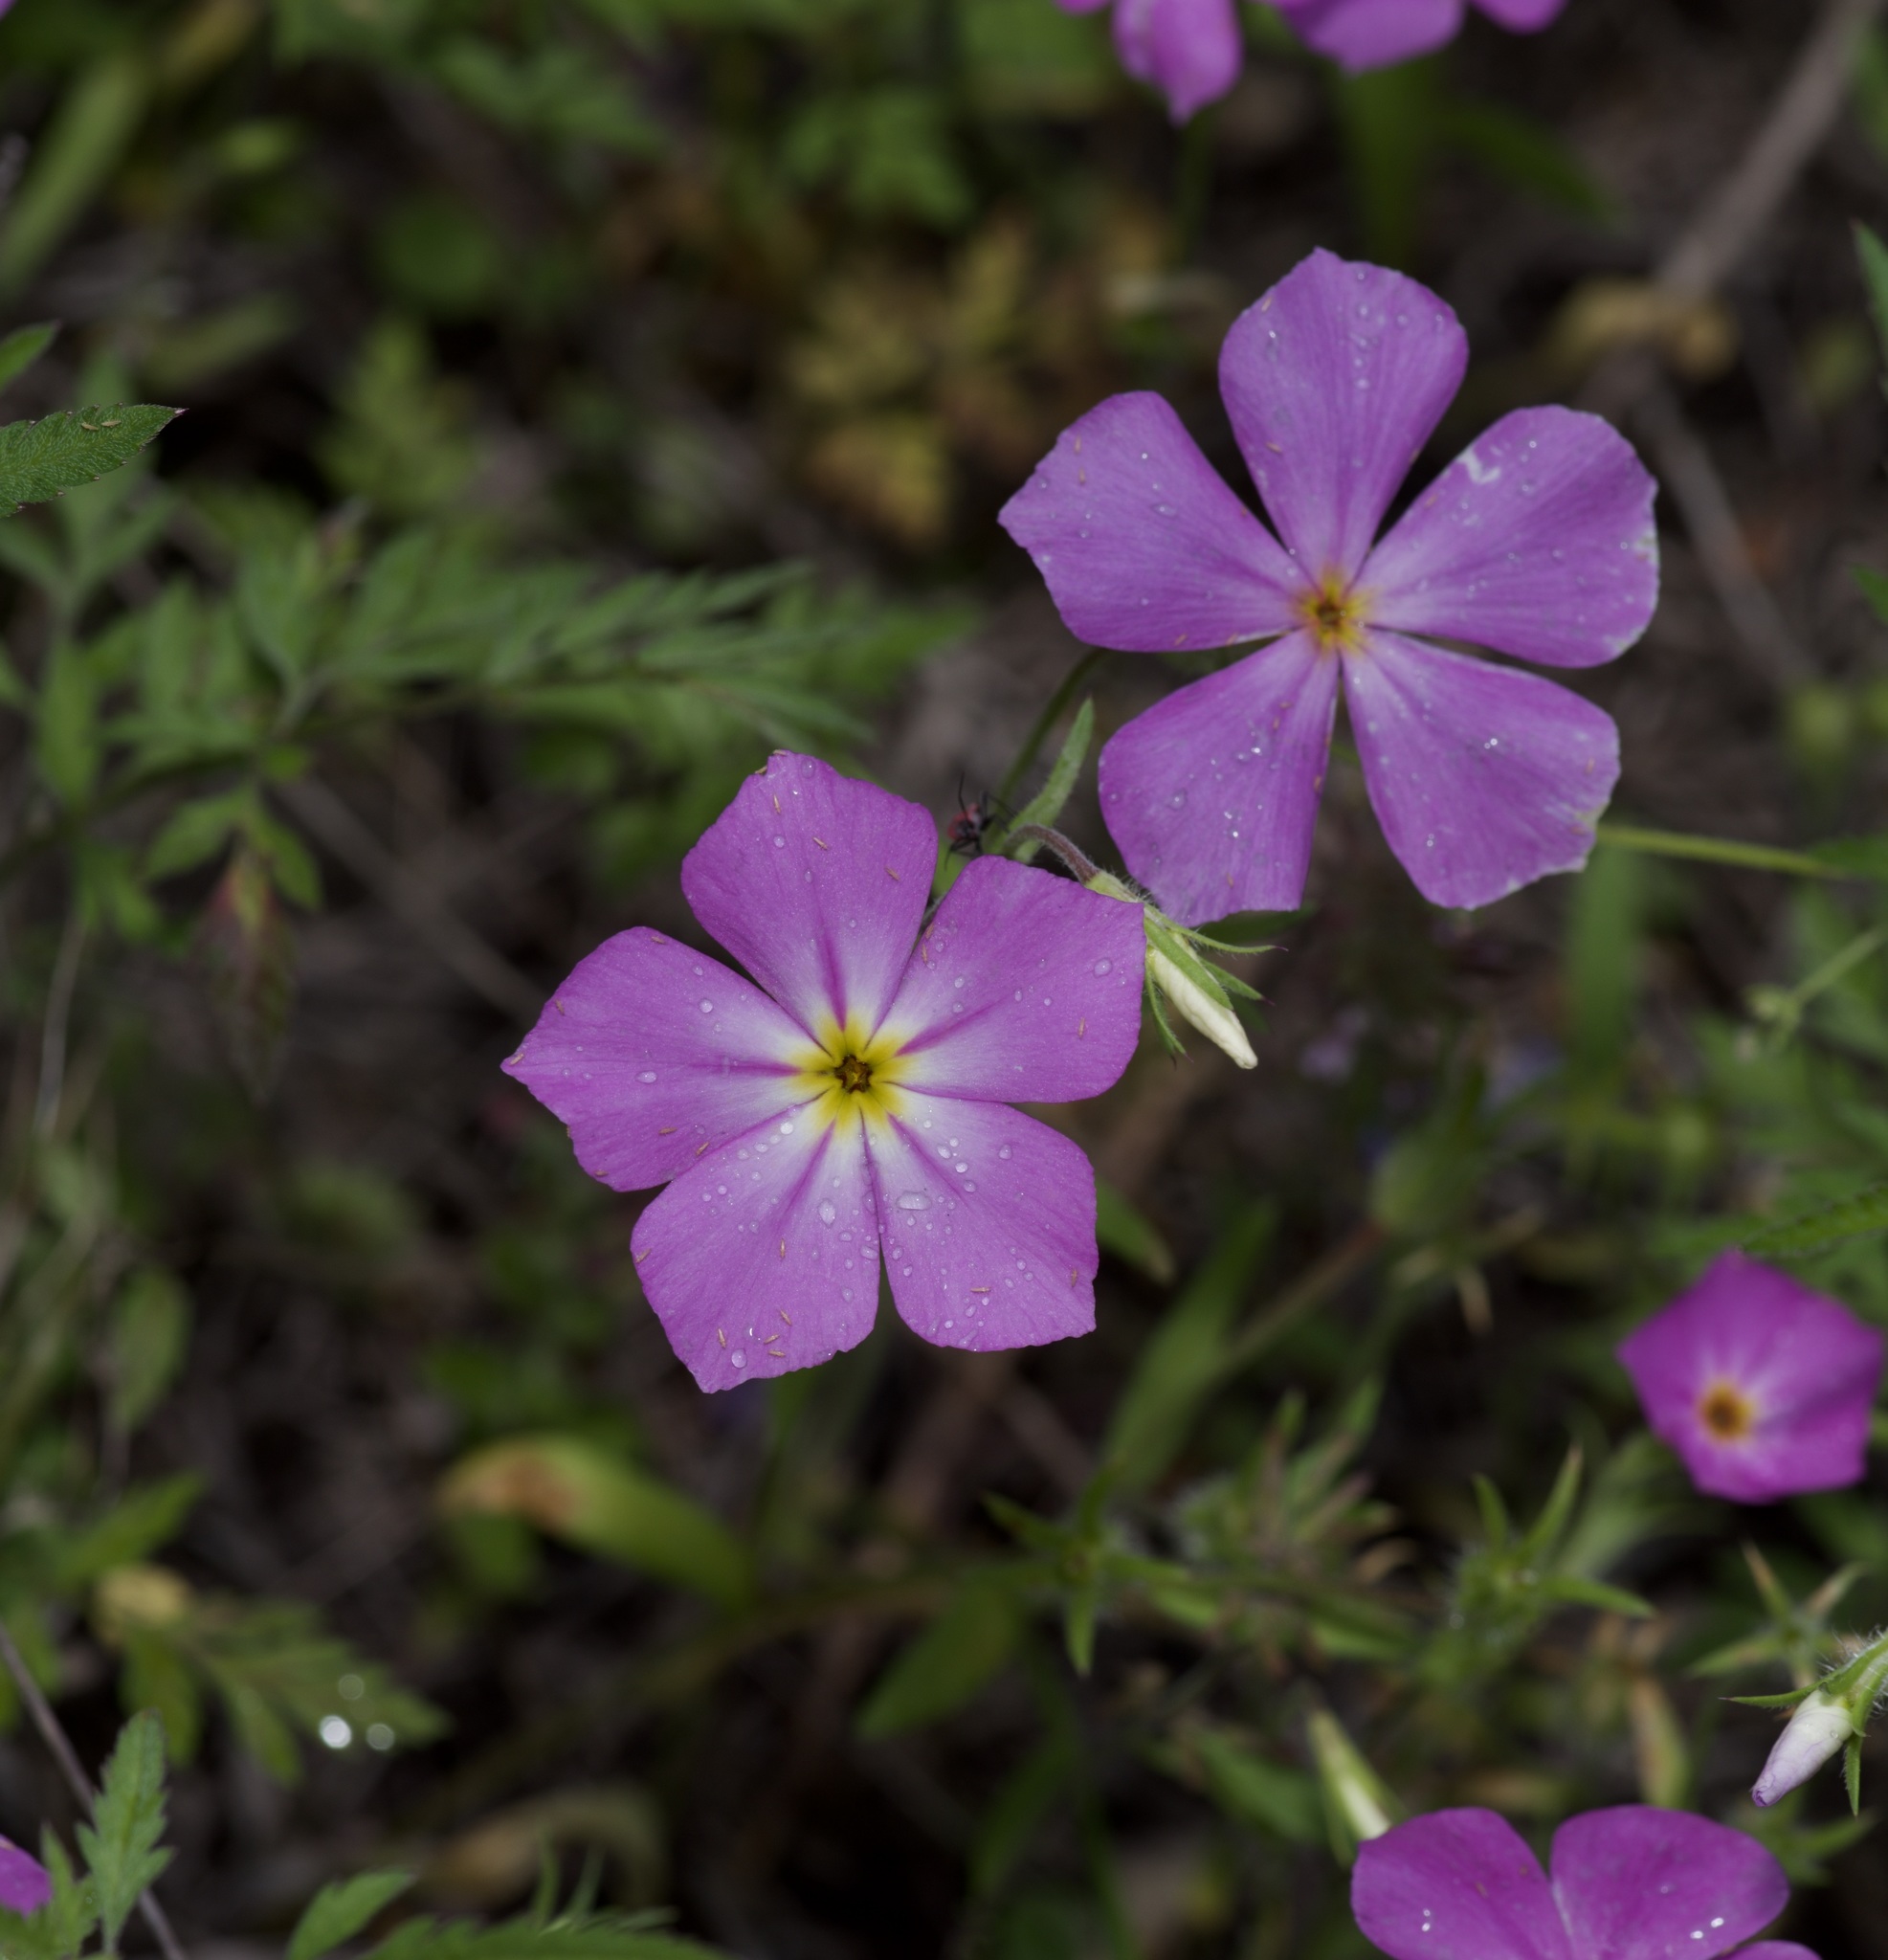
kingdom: Plantae
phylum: Tracheophyta
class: Magnoliopsida
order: Ericales
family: Polemoniaceae
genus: Phlox
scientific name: Phlox roemeriana
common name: Roemer's phlox
